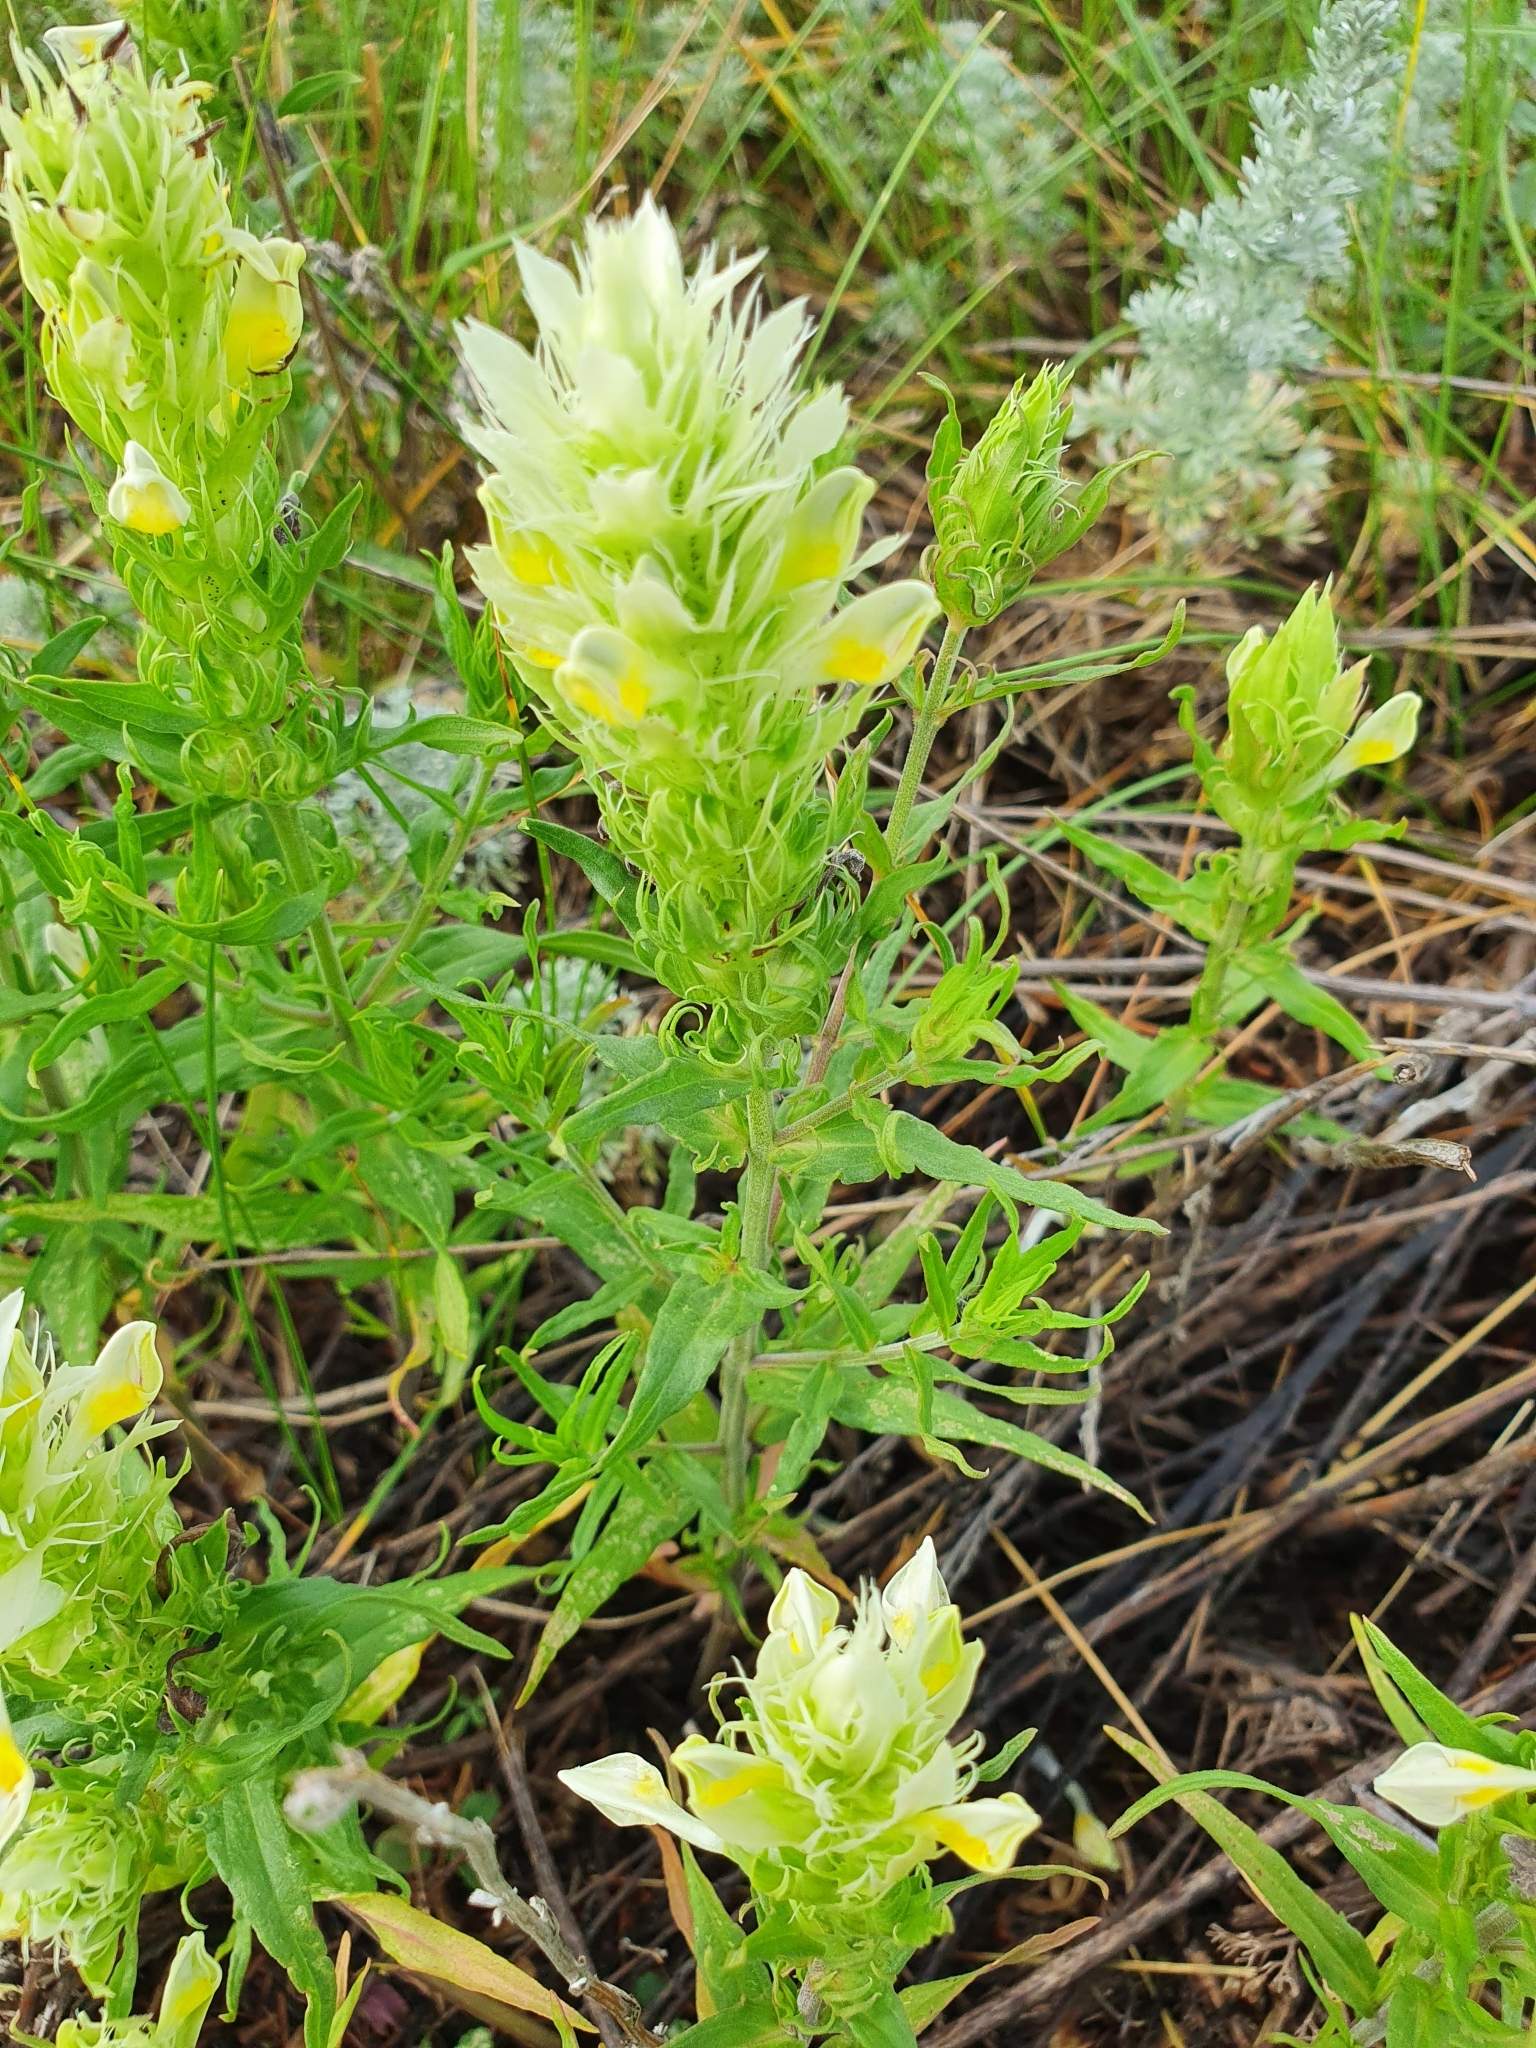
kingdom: Plantae
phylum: Tracheophyta
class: Magnoliopsida
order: Lamiales
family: Orobanchaceae
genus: Melampyrum
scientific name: Melampyrum arvense
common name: Field cow-wheat
